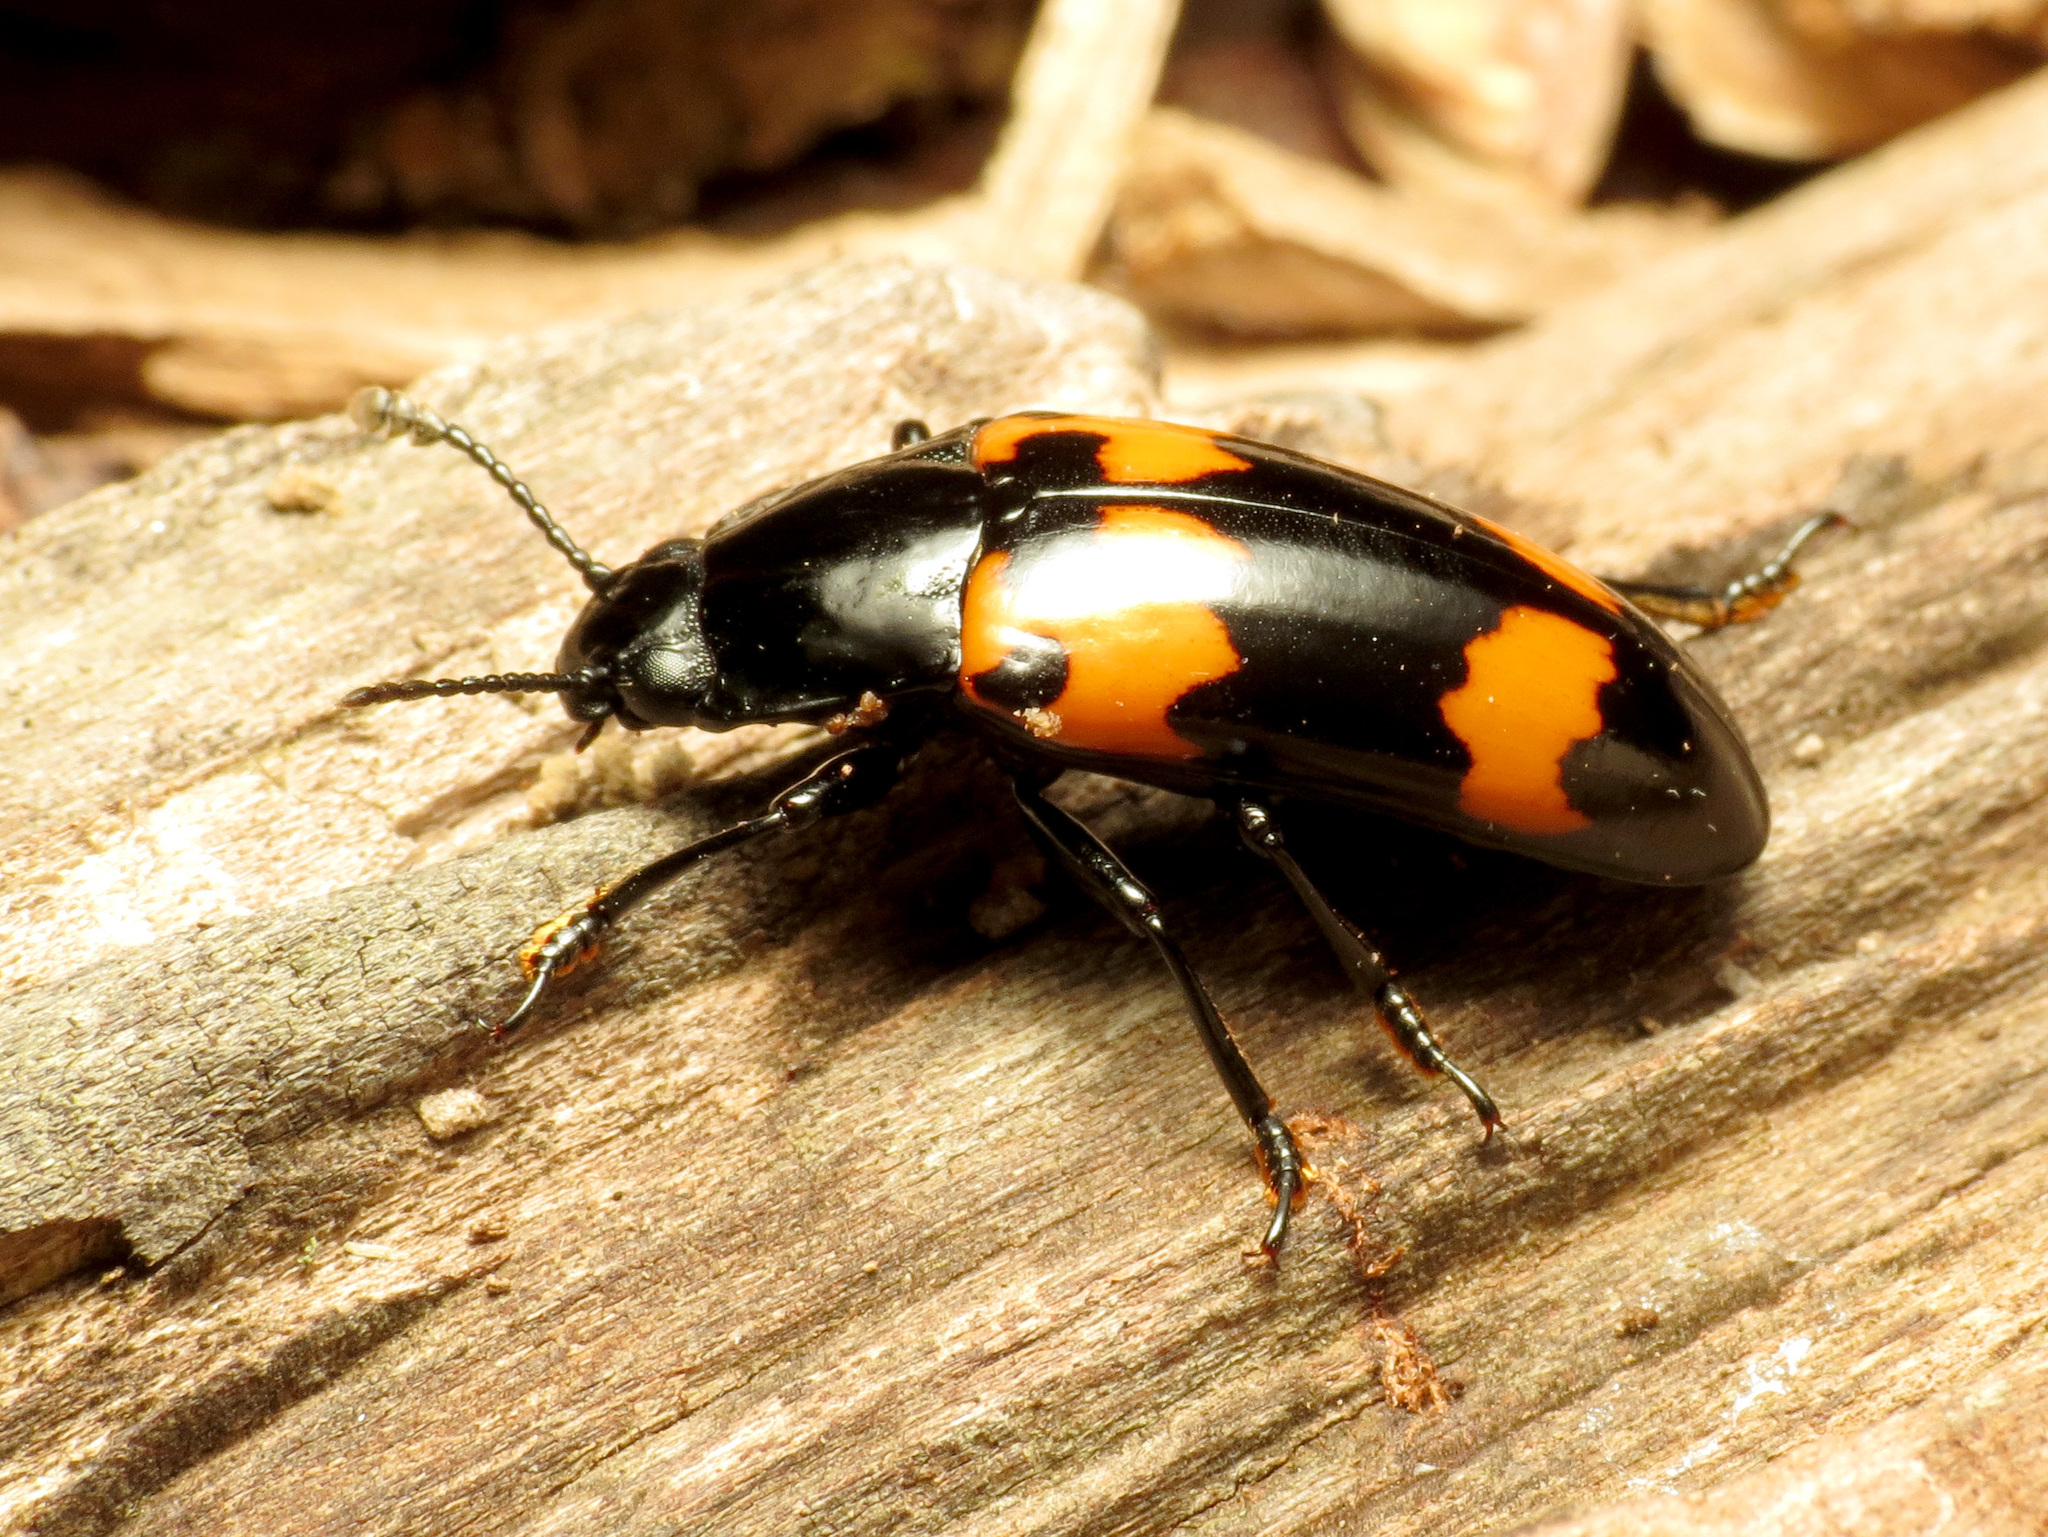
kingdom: Animalia
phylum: Arthropoda
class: Insecta
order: Coleoptera
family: Erotylidae
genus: Megalodacne
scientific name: Megalodacne heros
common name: Pleasing fungus beetle
